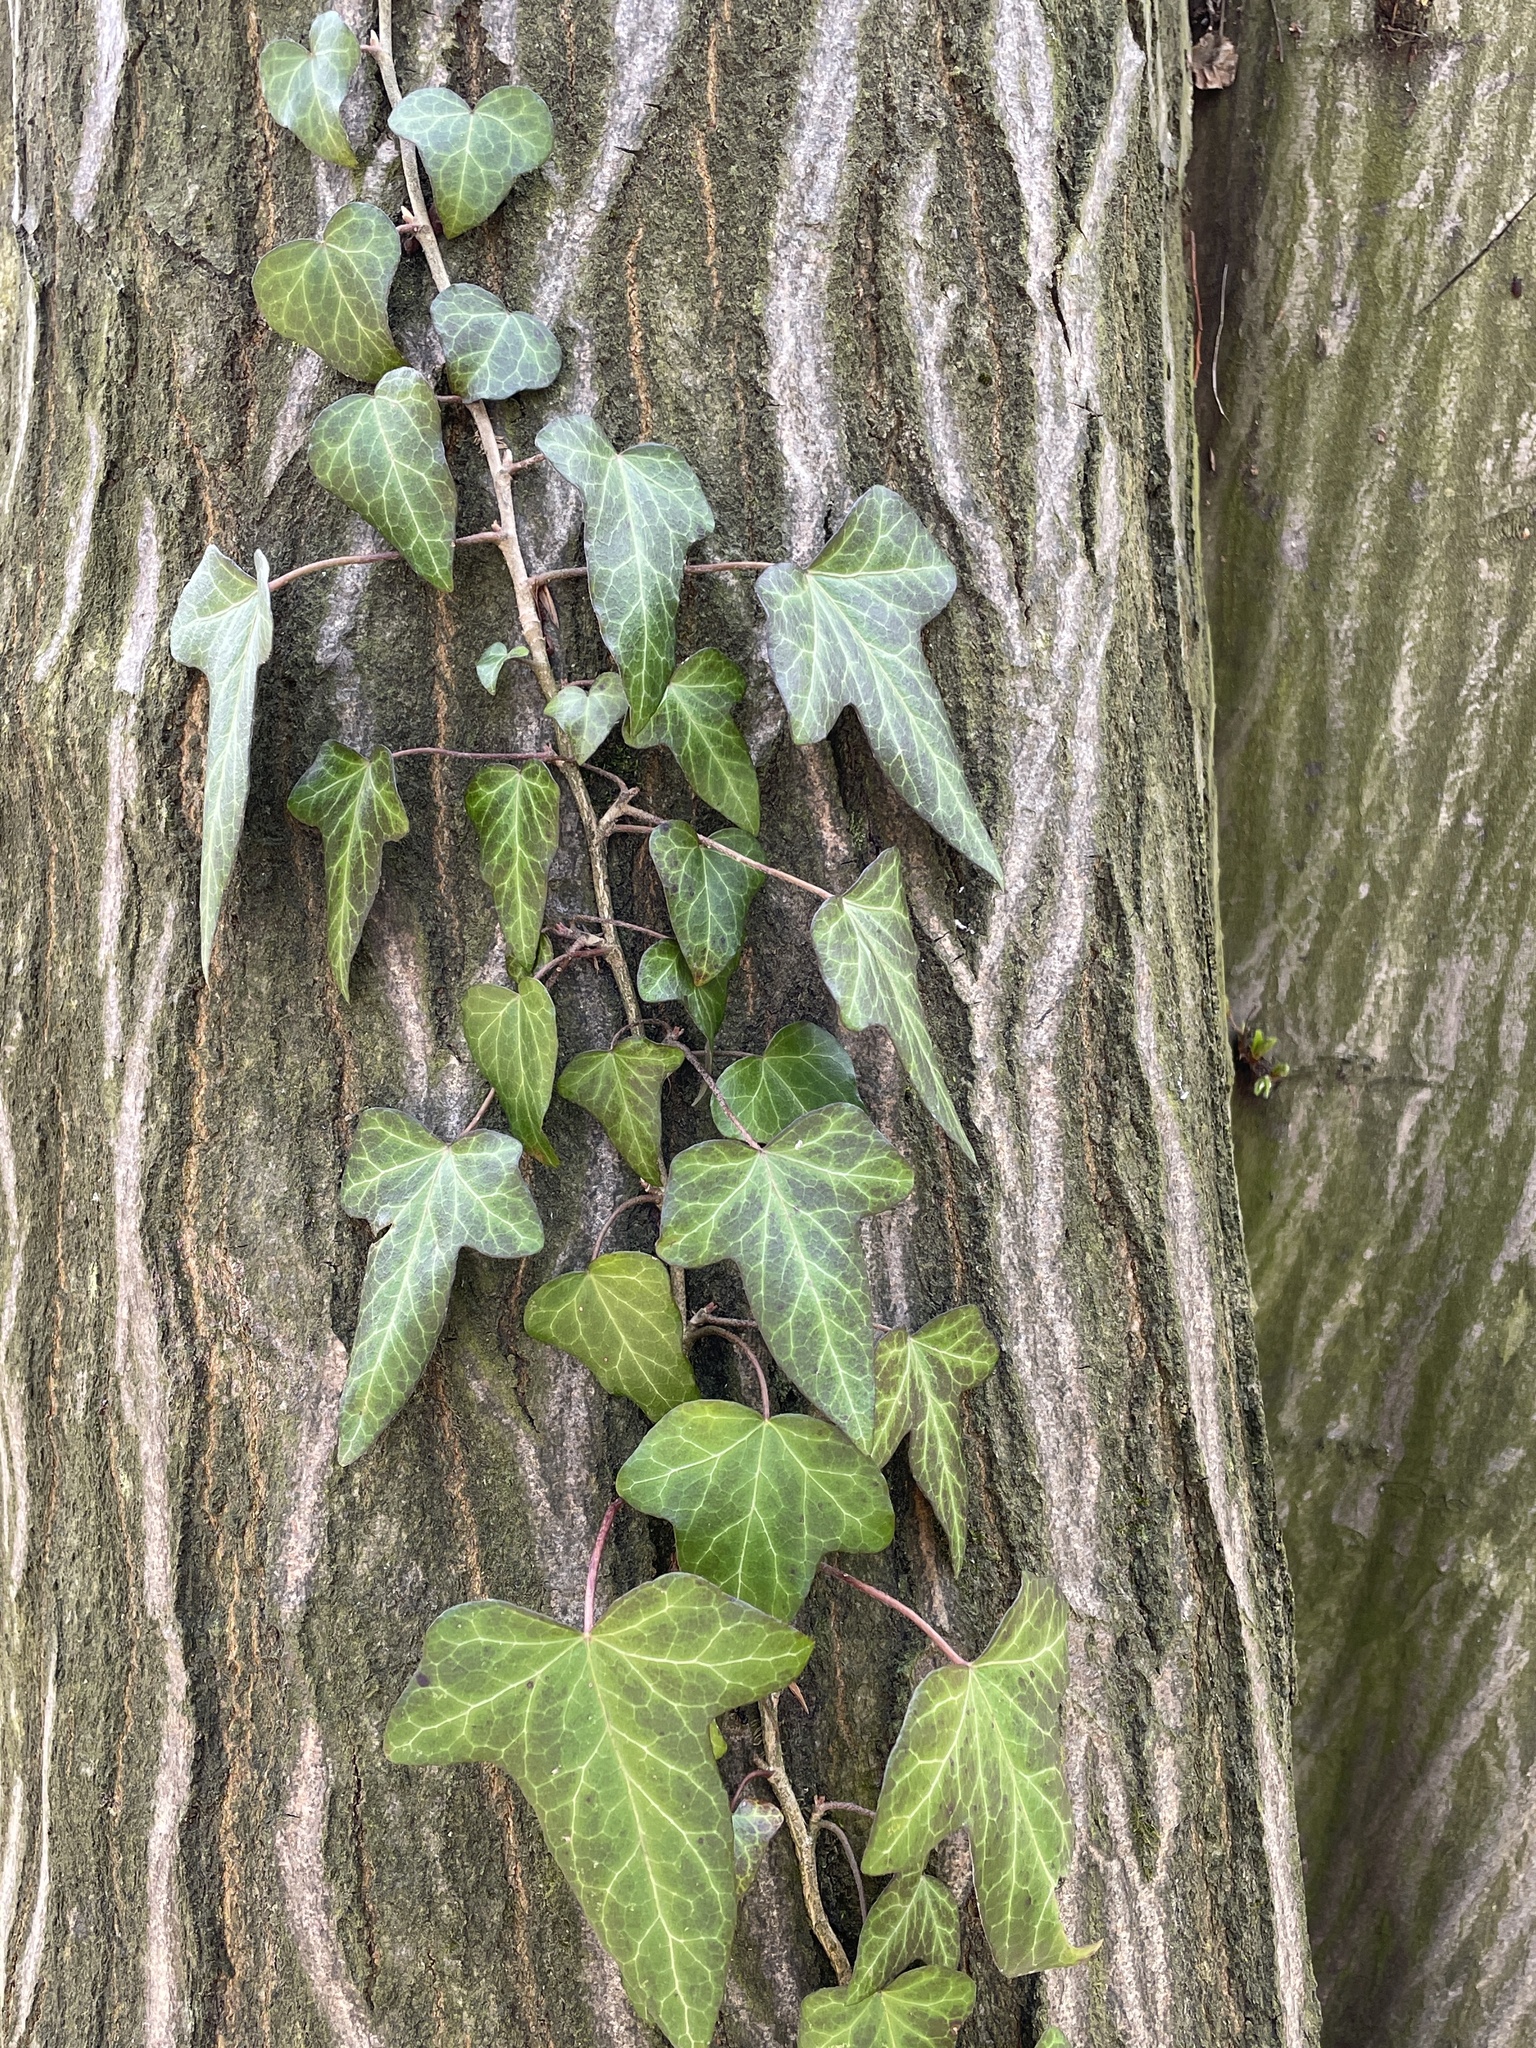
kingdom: Plantae
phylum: Tracheophyta
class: Magnoliopsida
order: Apiales
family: Araliaceae
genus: Hedera
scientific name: Hedera helix
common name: Ivy
